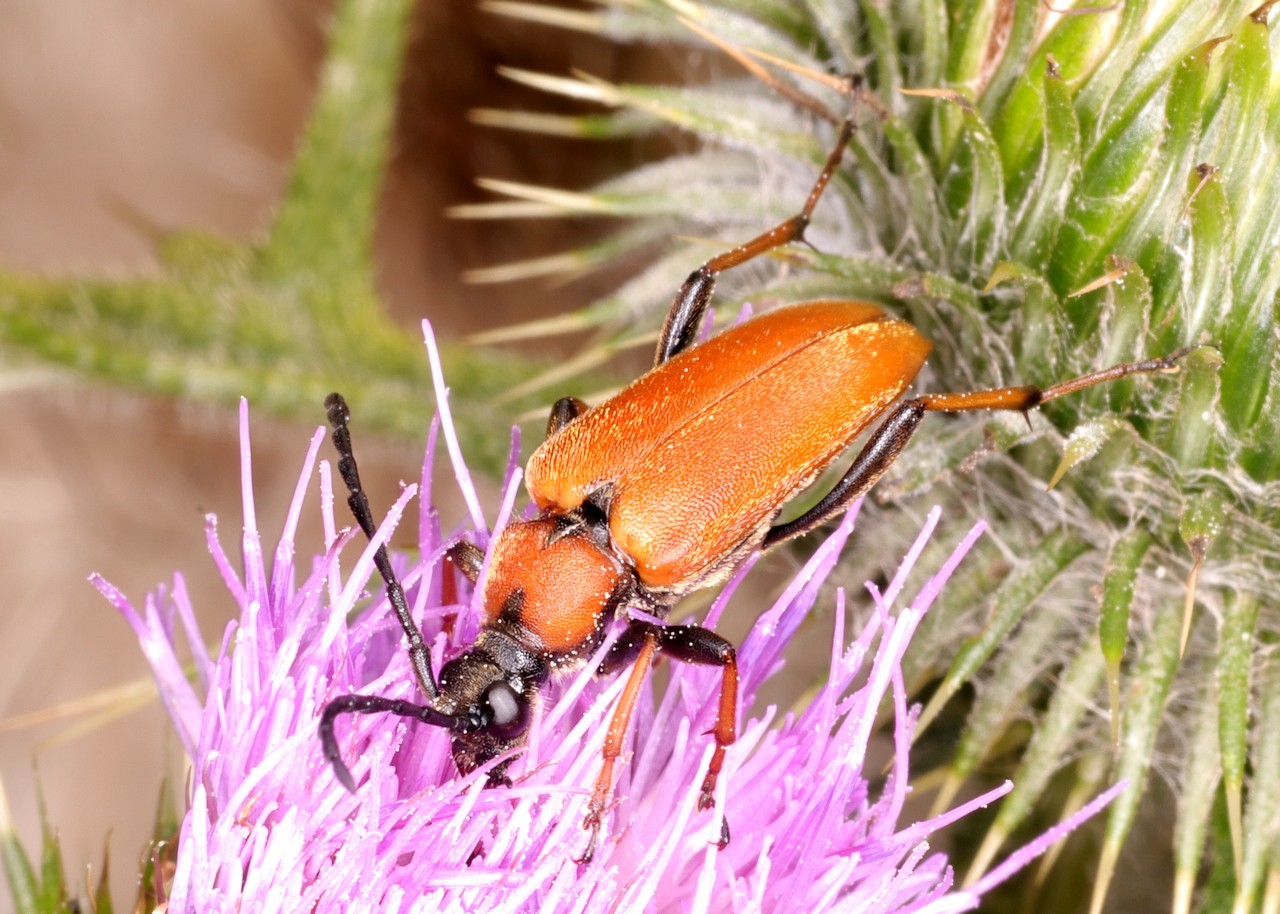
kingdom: Animalia
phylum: Arthropoda
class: Insecta
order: Coleoptera
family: Cerambycidae
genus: Stictoleptura
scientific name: Stictoleptura rubra
